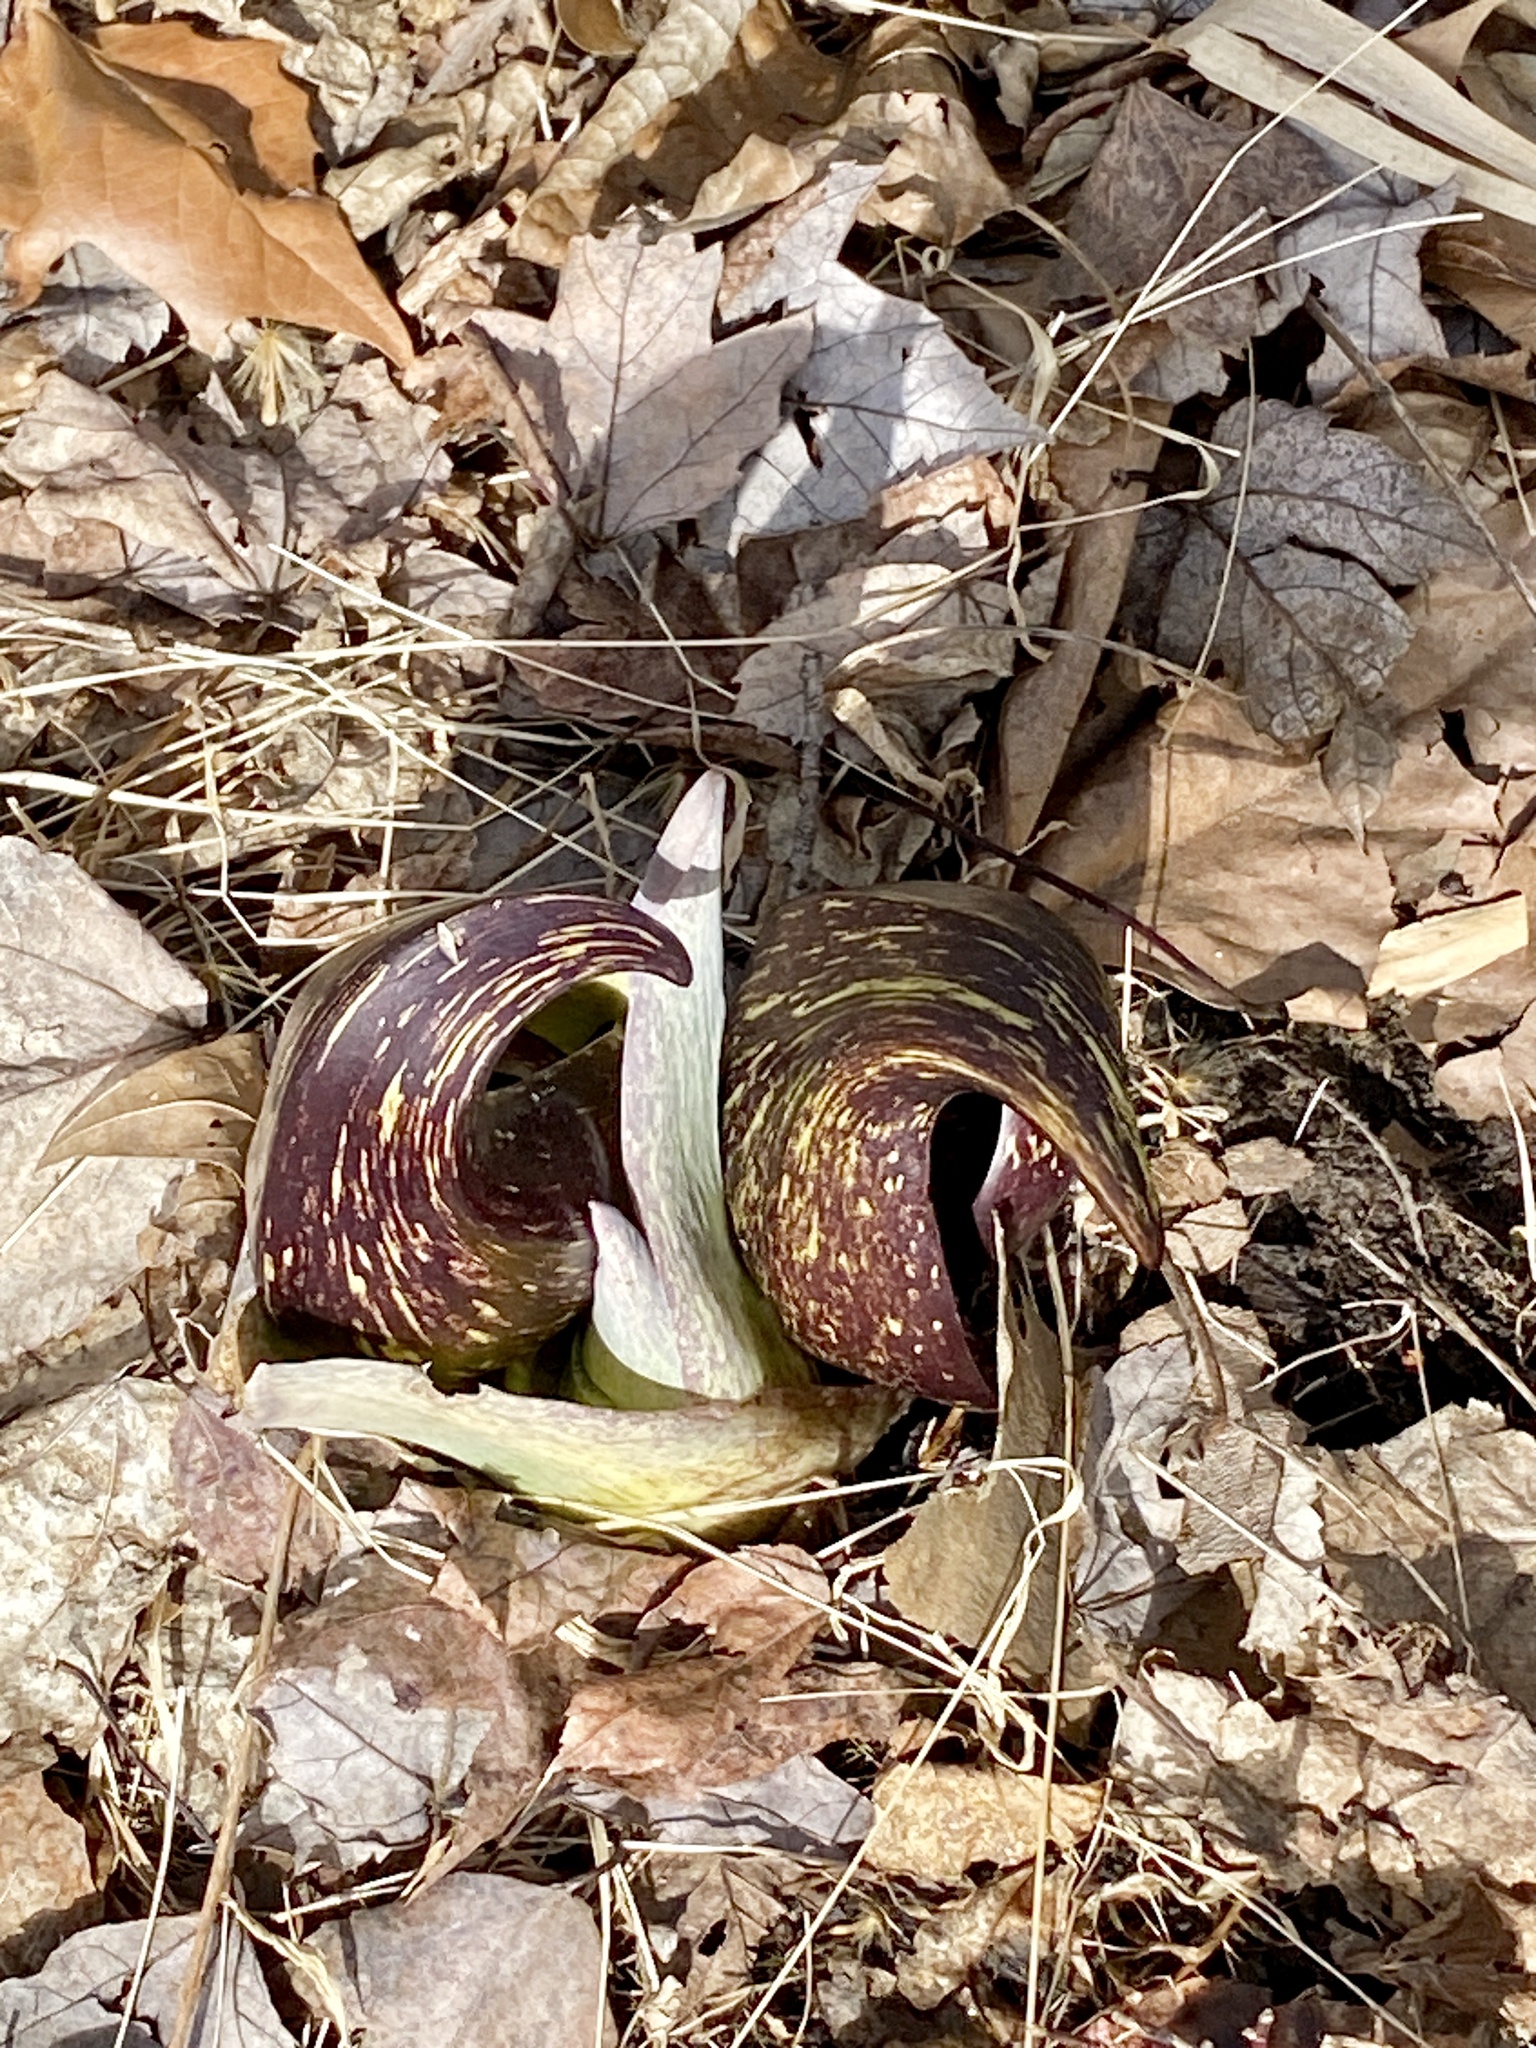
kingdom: Plantae
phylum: Tracheophyta
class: Liliopsida
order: Alismatales
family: Araceae
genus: Symplocarpus
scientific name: Symplocarpus foetidus
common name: Eastern skunk cabbage
